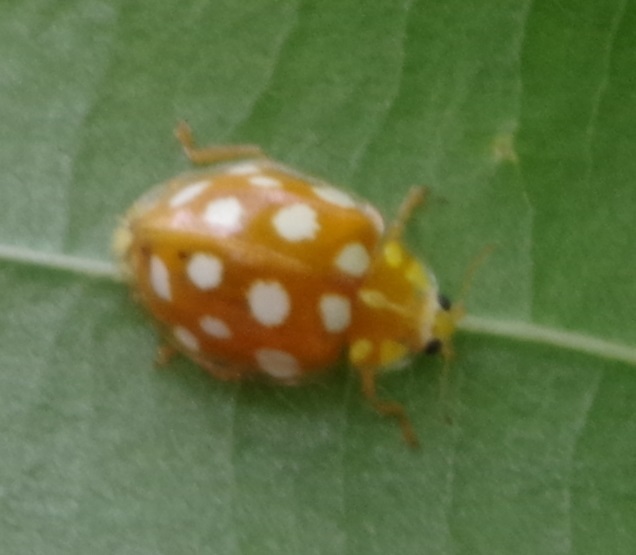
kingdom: Animalia
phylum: Arthropoda
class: Insecta
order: Coleoptera
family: Coccinellidae
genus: Halyzia
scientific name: Halyzia sedecimguttata
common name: Orange ladybird
